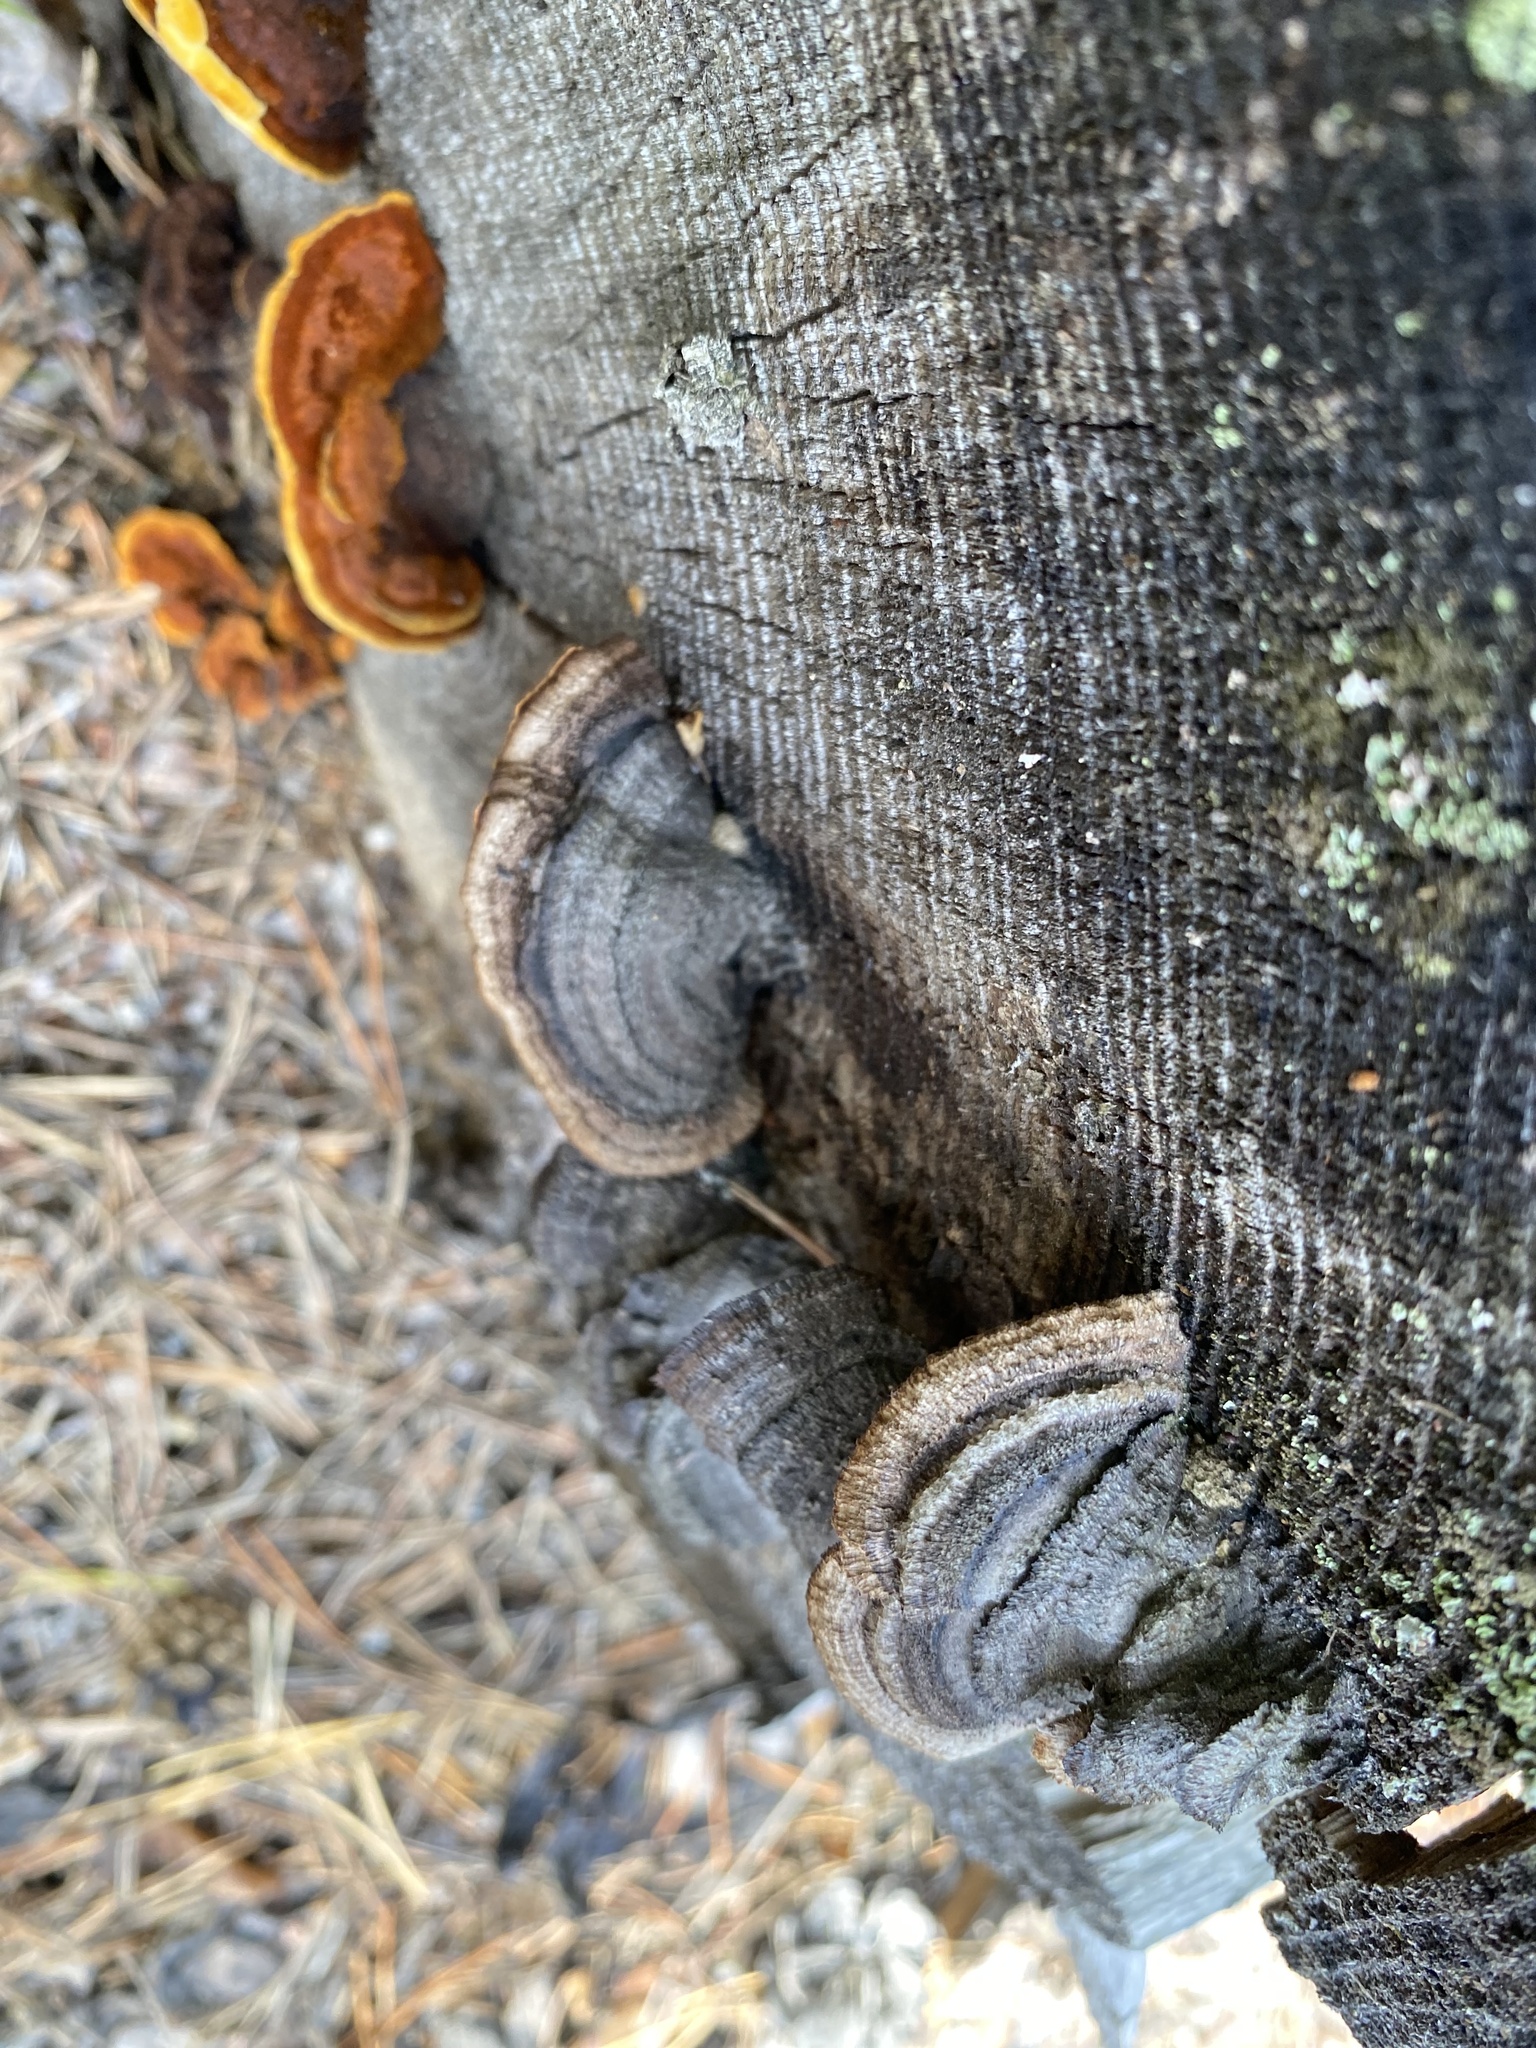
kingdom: Fungi
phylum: Basidiomycota
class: Agaricomycetes
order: Gloeophyllales
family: Gloeophyllaceae
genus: Gloeophyllum
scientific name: Gloeophyllum sepiarium
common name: Conifer mazegill
